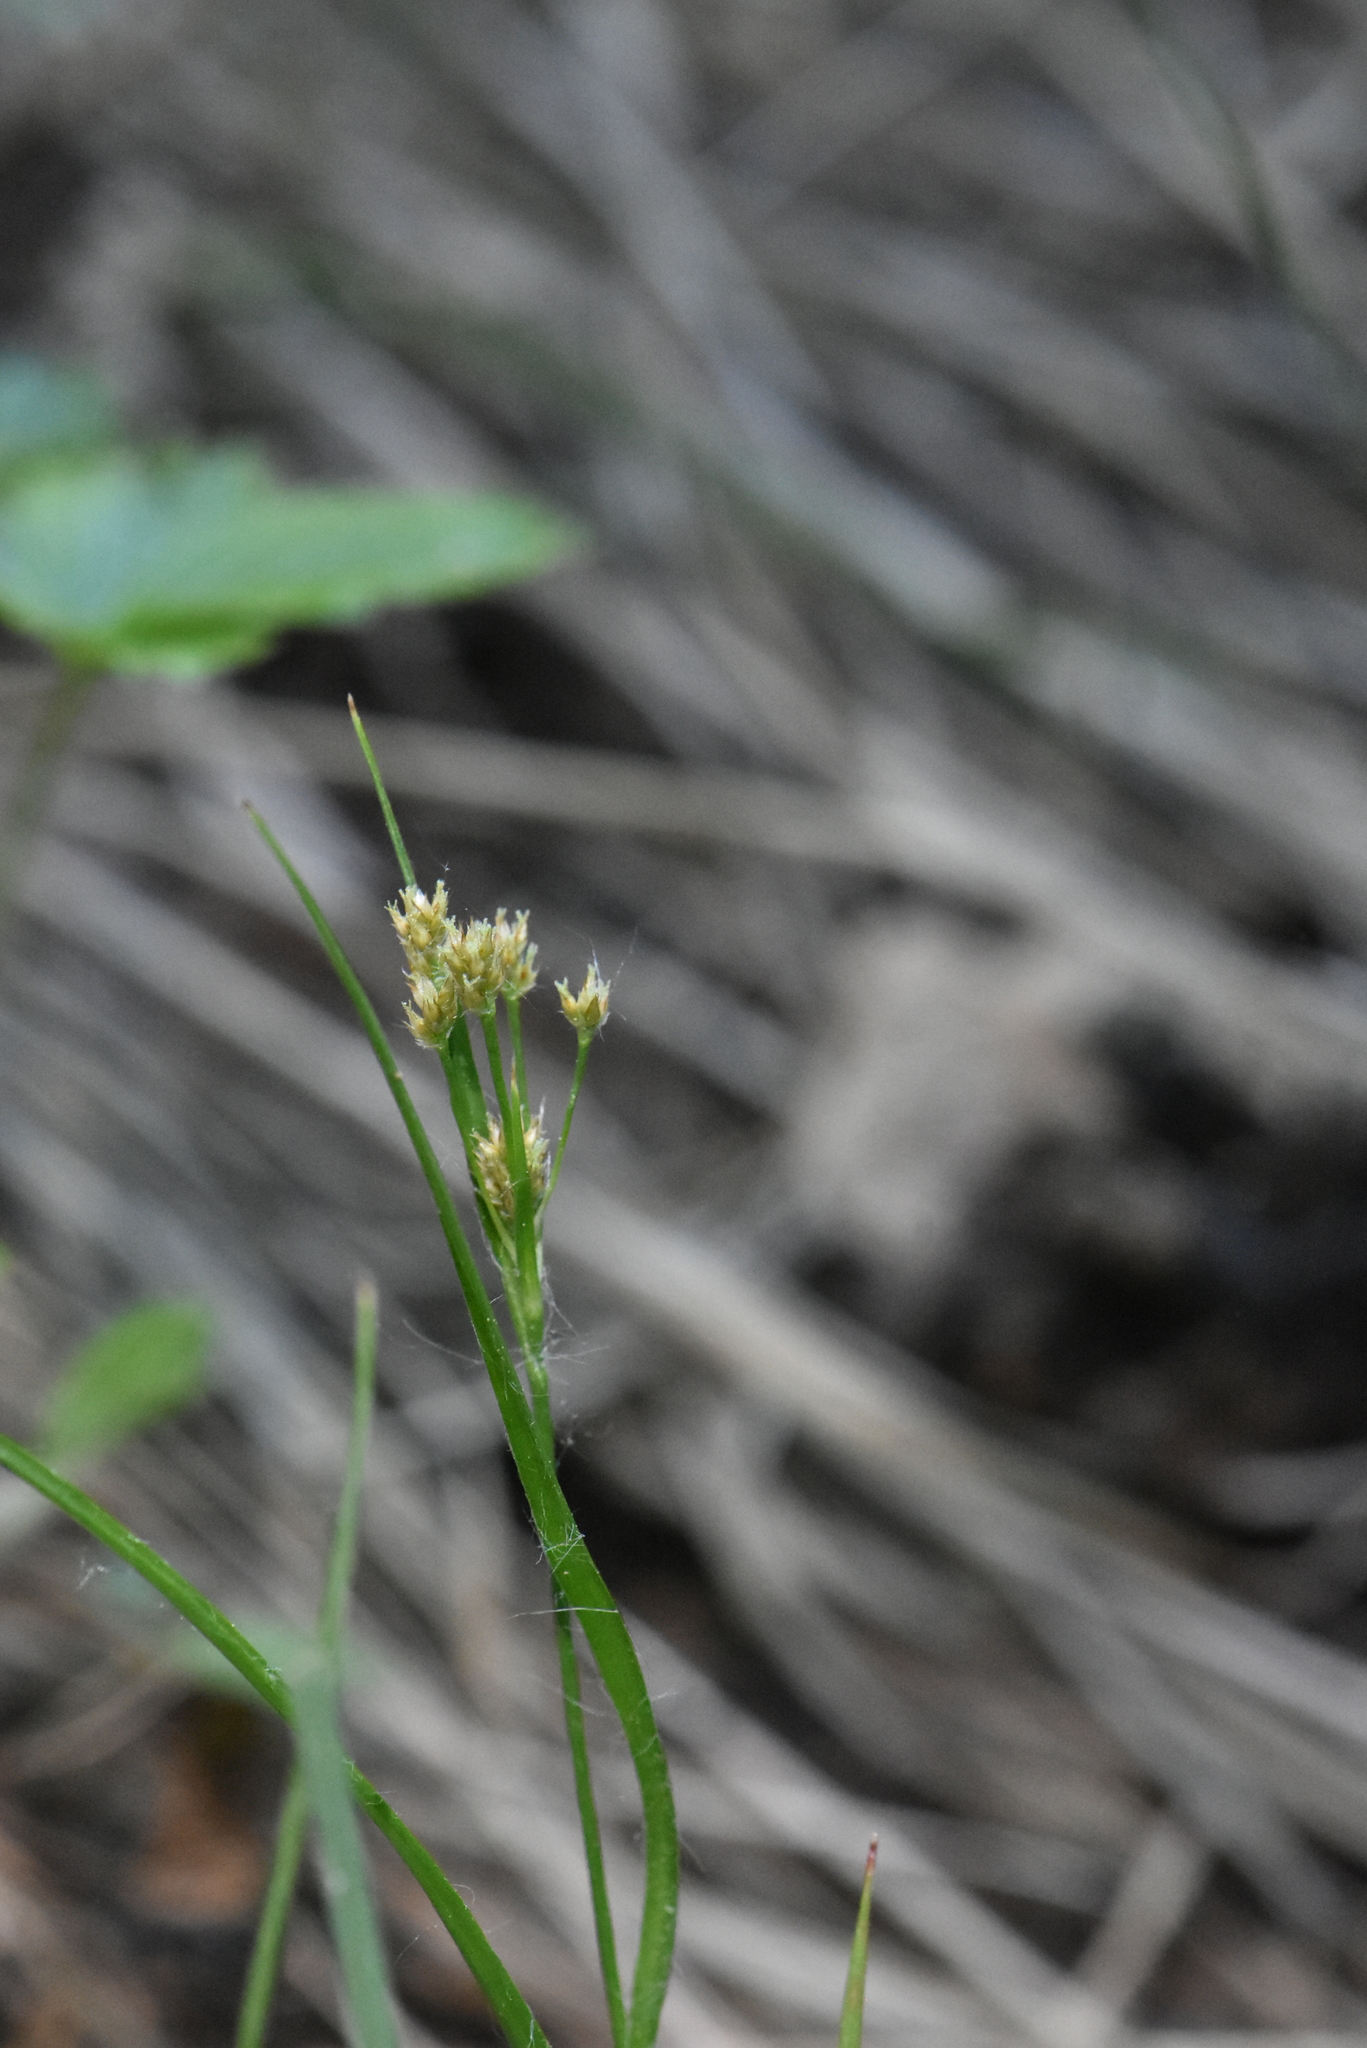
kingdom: Plantae
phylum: Tracheophyta
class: Liliopsida
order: Poales
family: Juncaceae
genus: Luzula
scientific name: Luzula pallescens
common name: Fen wood-rush
